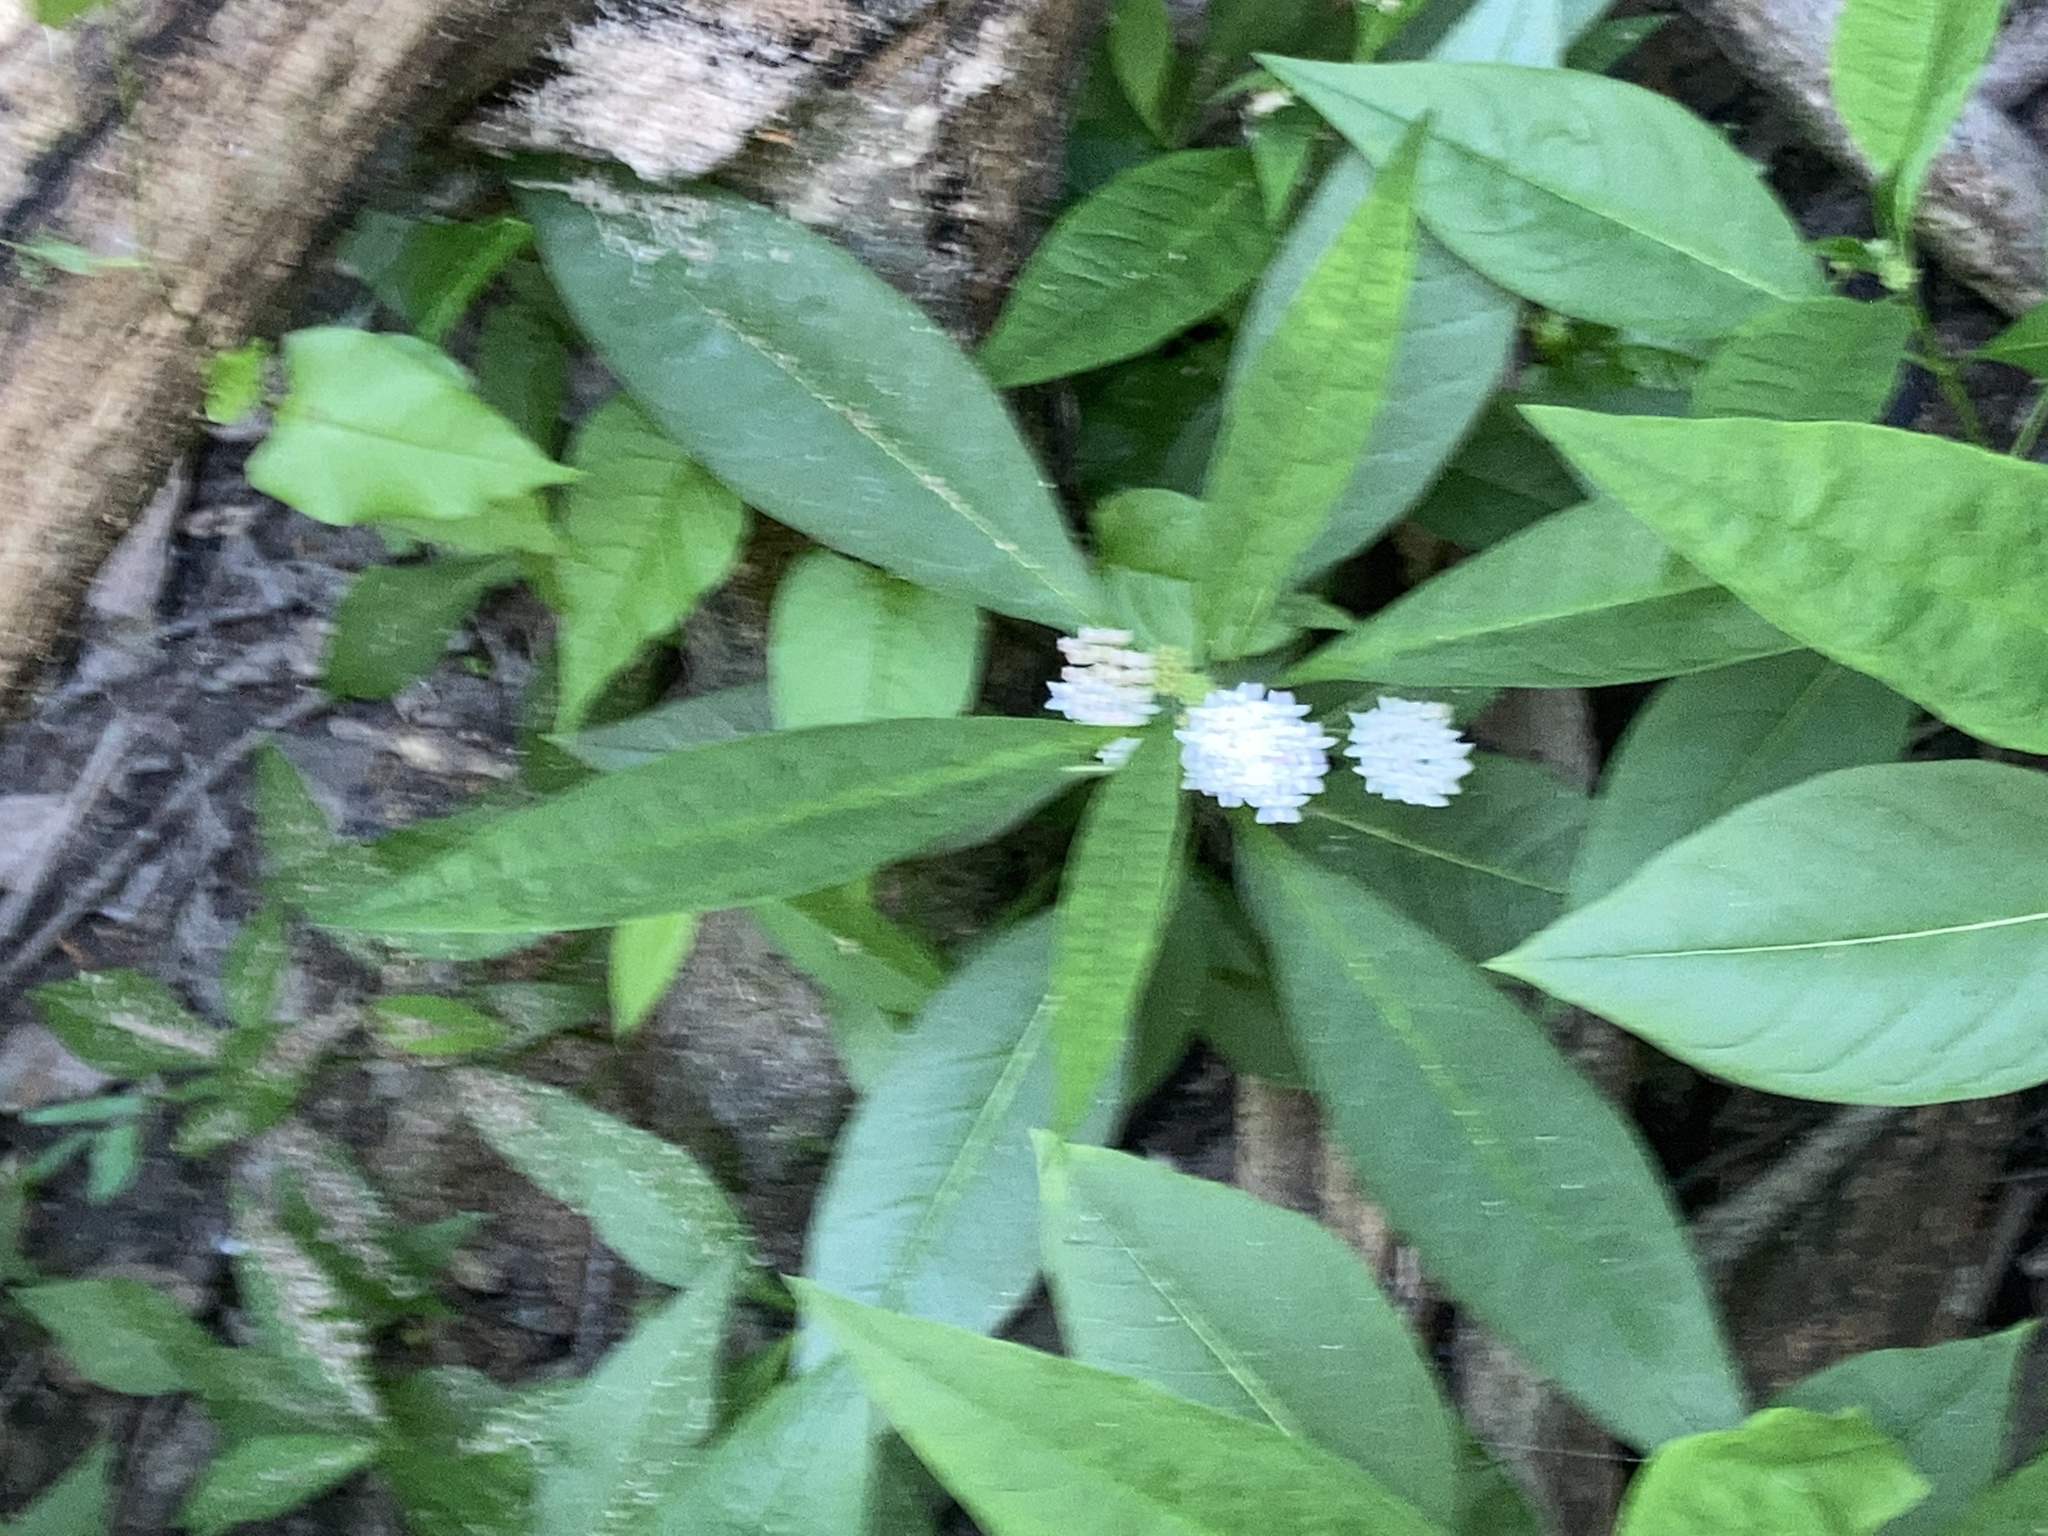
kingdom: Plantae
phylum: Tracheophyta
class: Magnoliopsida
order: Gentianales
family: Apocynaceae
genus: Asclepias
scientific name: Asclepias perennis
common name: Smooth-seed milkweed
